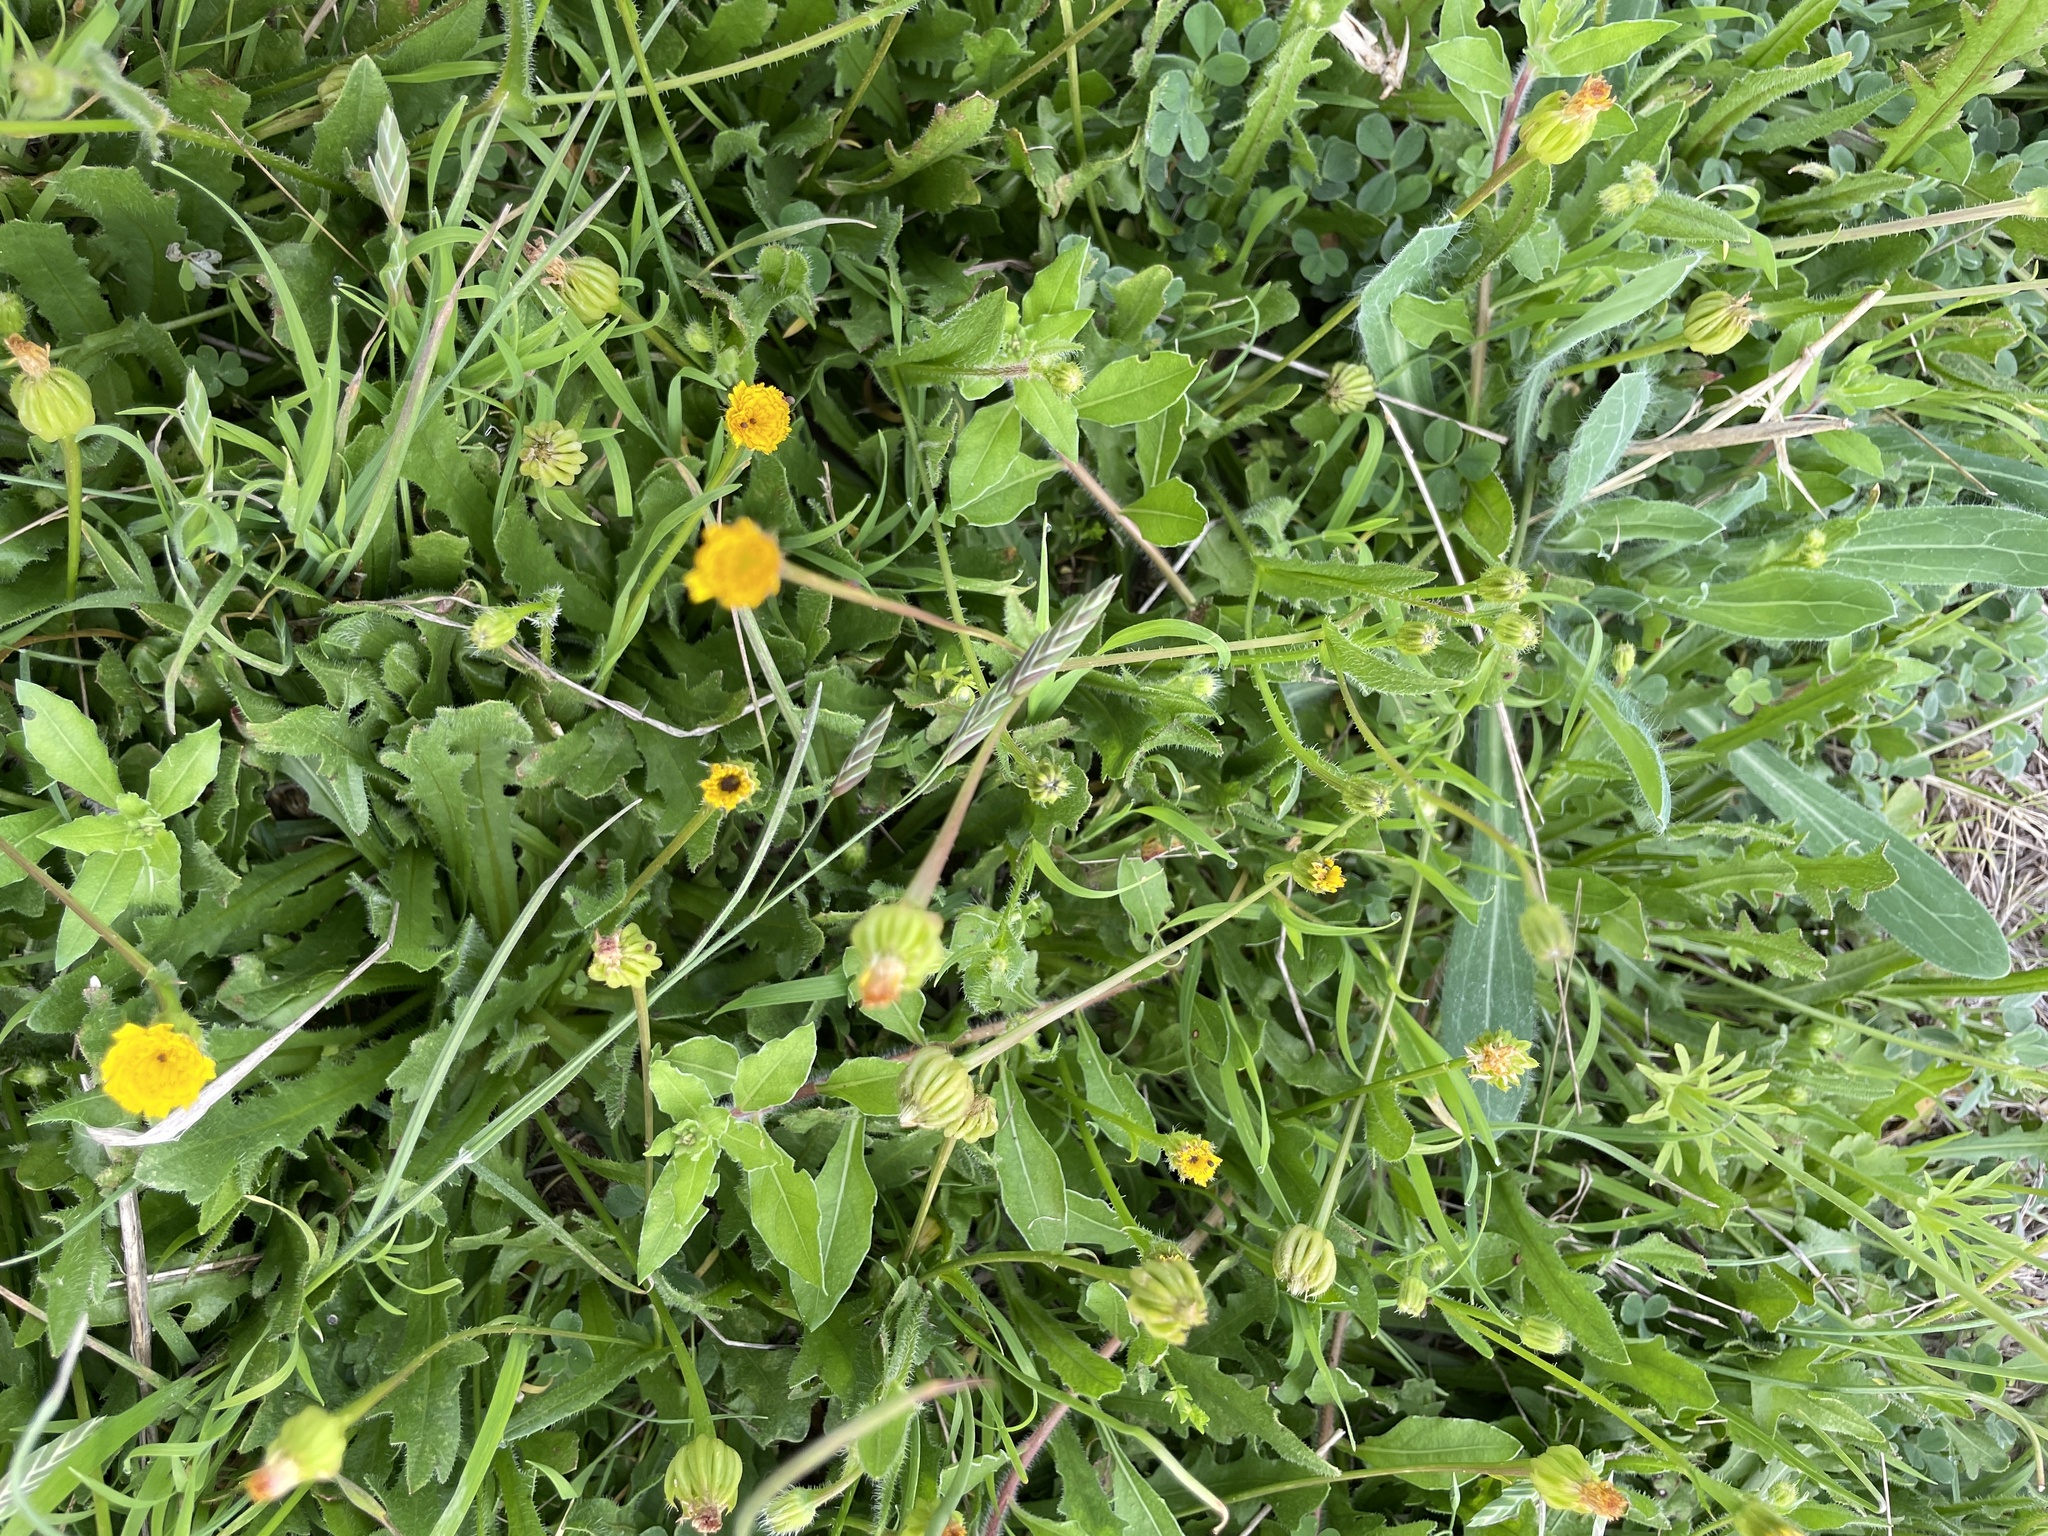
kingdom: Plantae
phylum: Tracheophyta
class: Magnoliopsida
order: Asterales
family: Asteraceae
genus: Hedypnois
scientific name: Hedypnois rhagadioloides
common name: Cretan weed
